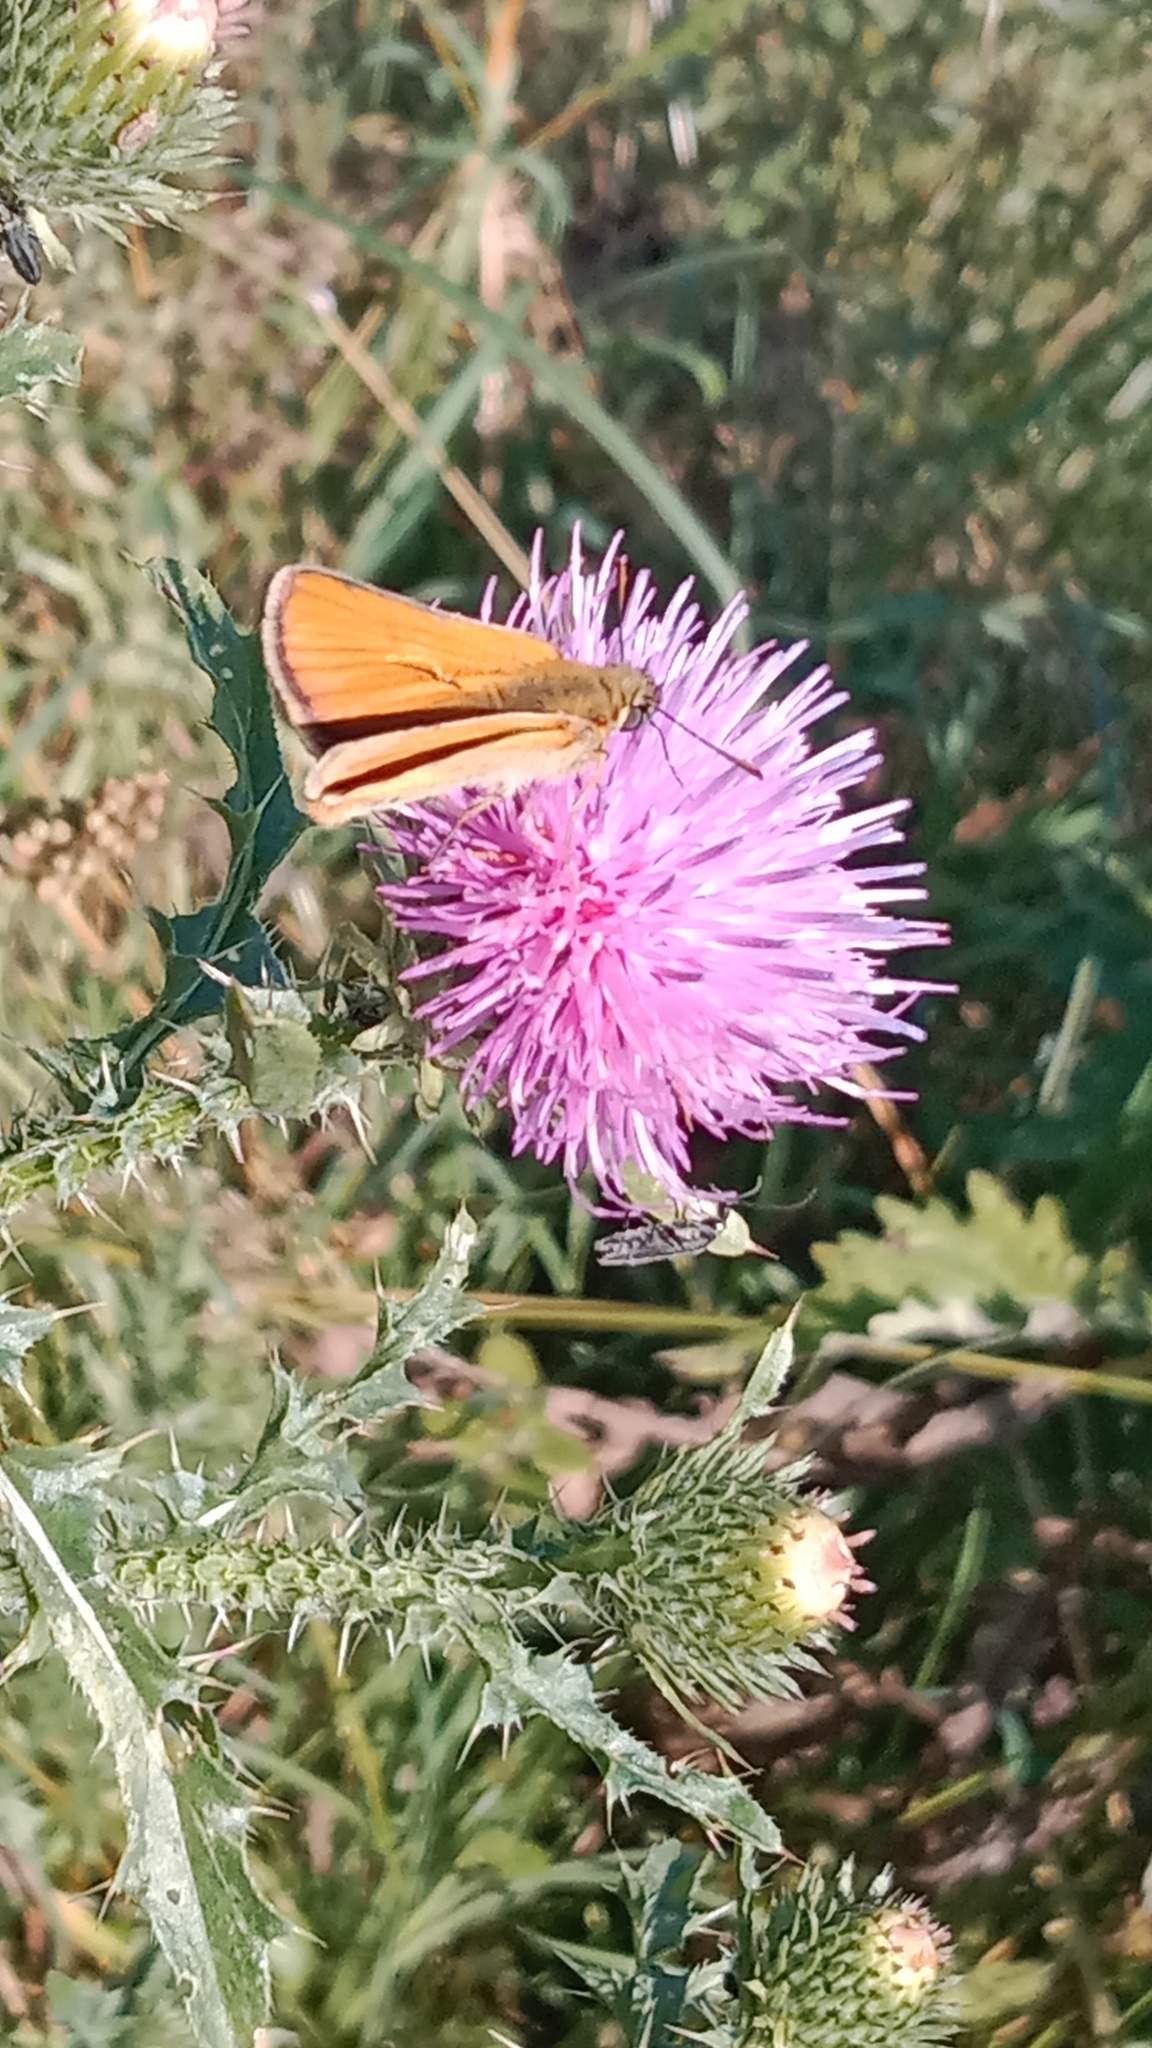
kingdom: Animalia
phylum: Arthropoda
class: Insecta
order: Lepidoptera
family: Hesperiidae
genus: Thymelicus
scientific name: Thymelicus sylvestris
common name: Small skipper
